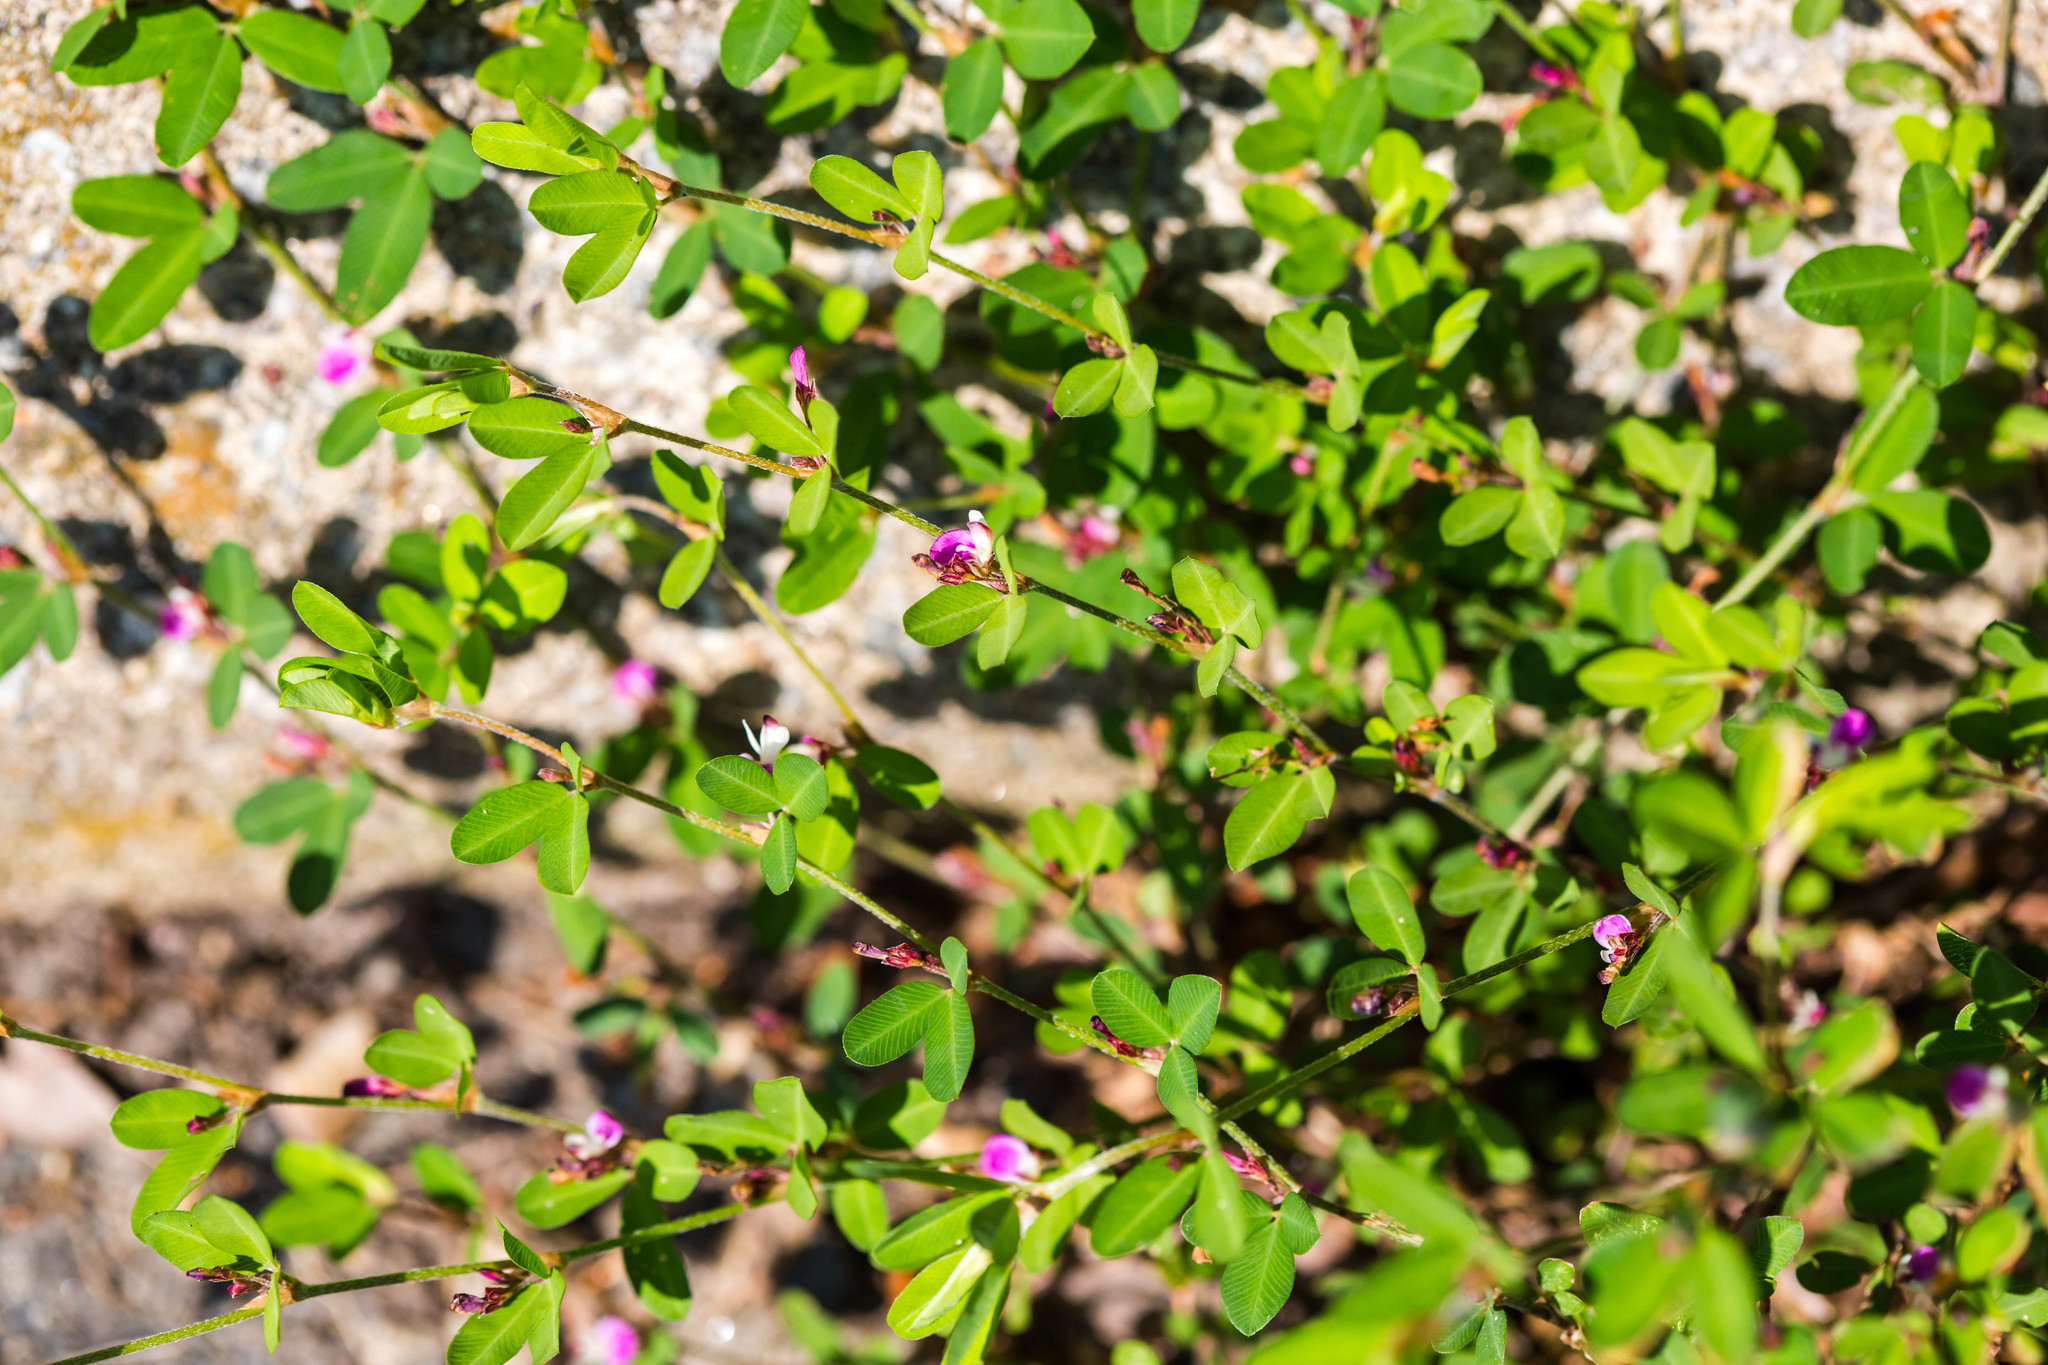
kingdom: Plantae
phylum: Tracheophyta
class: Magnoliopsida
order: Fabales
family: Fabaceae
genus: Kummerowia
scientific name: Kummerowia striata
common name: Japanese clover
